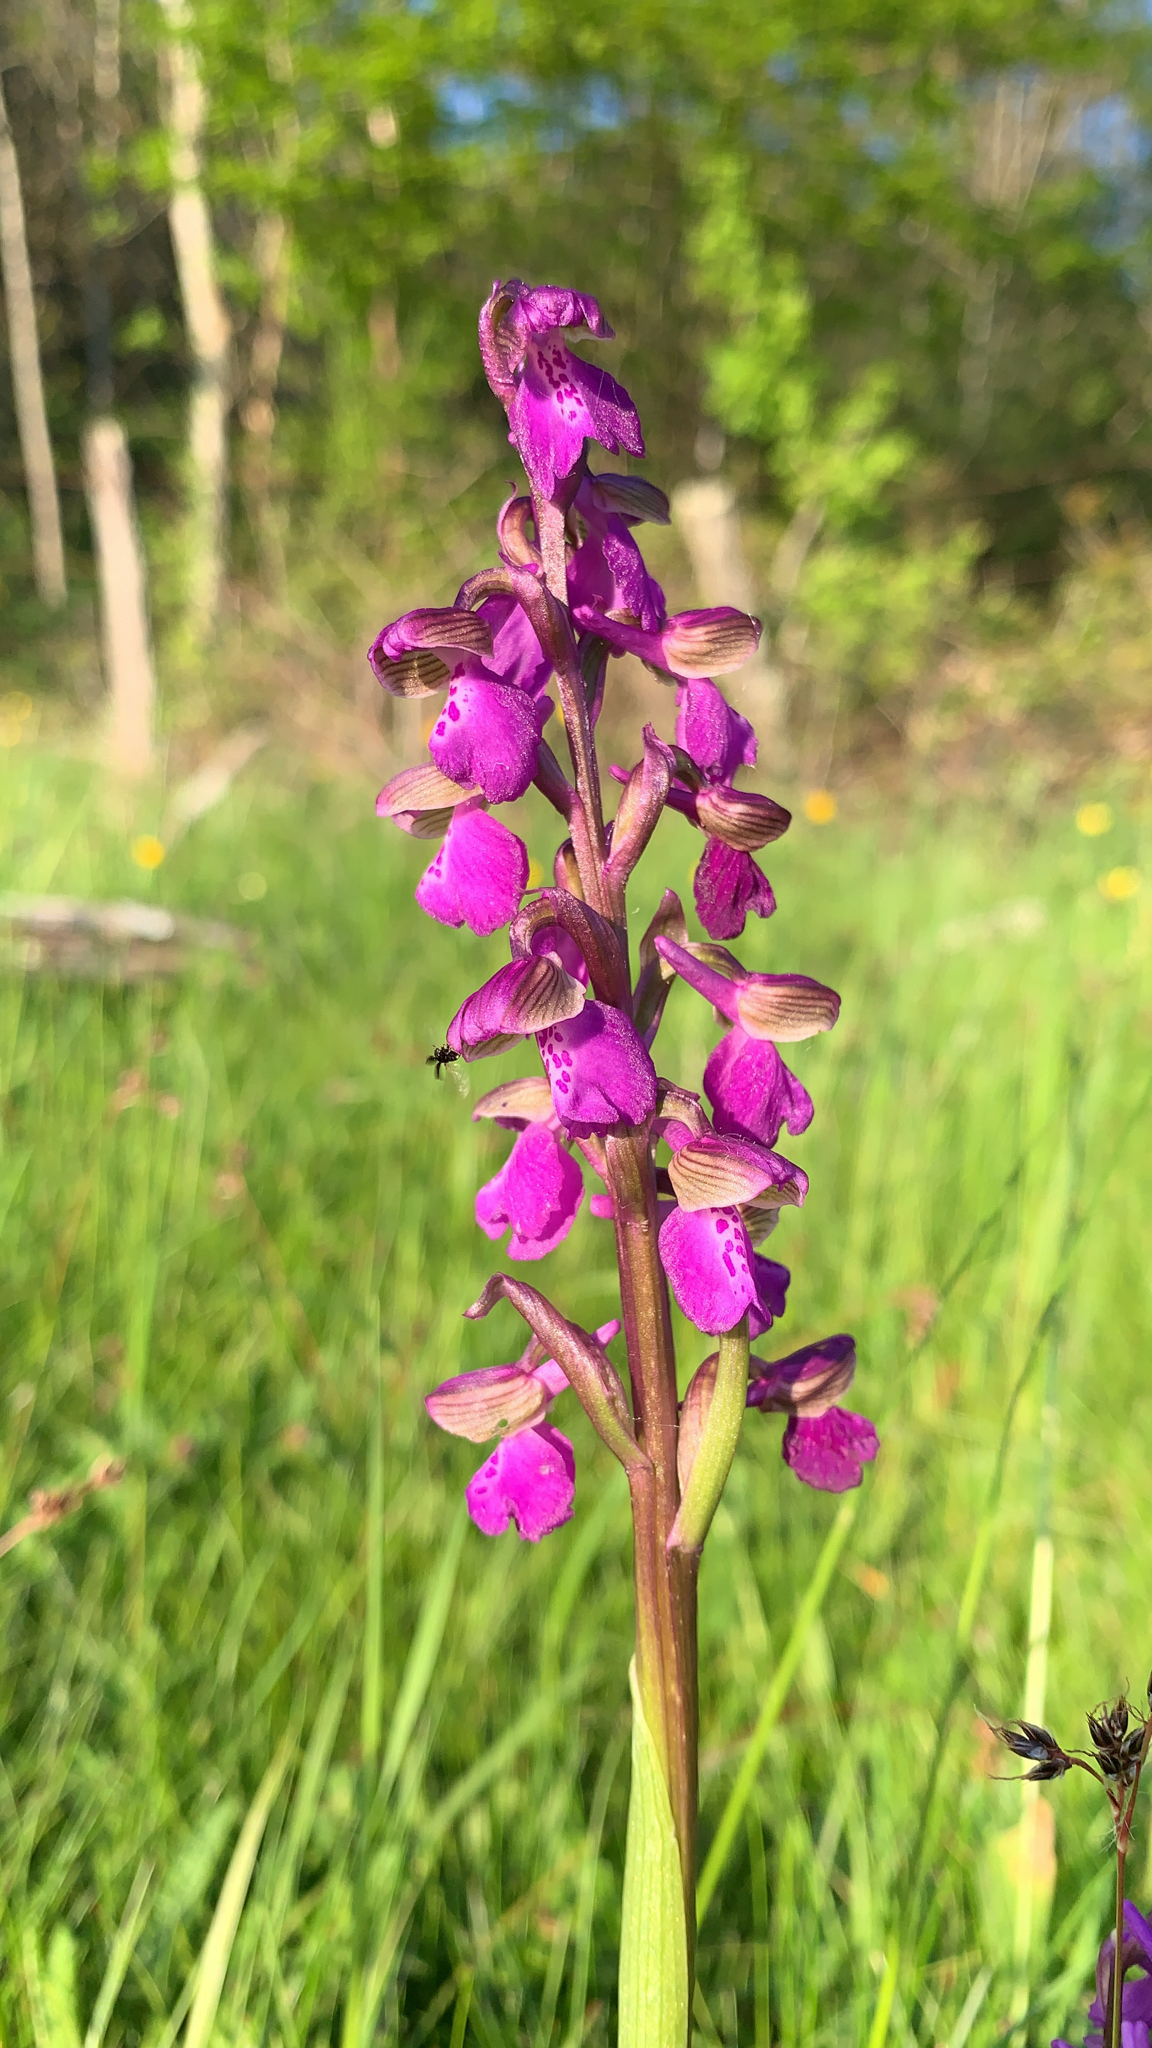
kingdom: Plantae
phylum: Tracheophyta
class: Liliopsida
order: Asparagales
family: Orchidaceae
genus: Anacamptis
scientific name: Anacamptis morio
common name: Green-winged orchid
